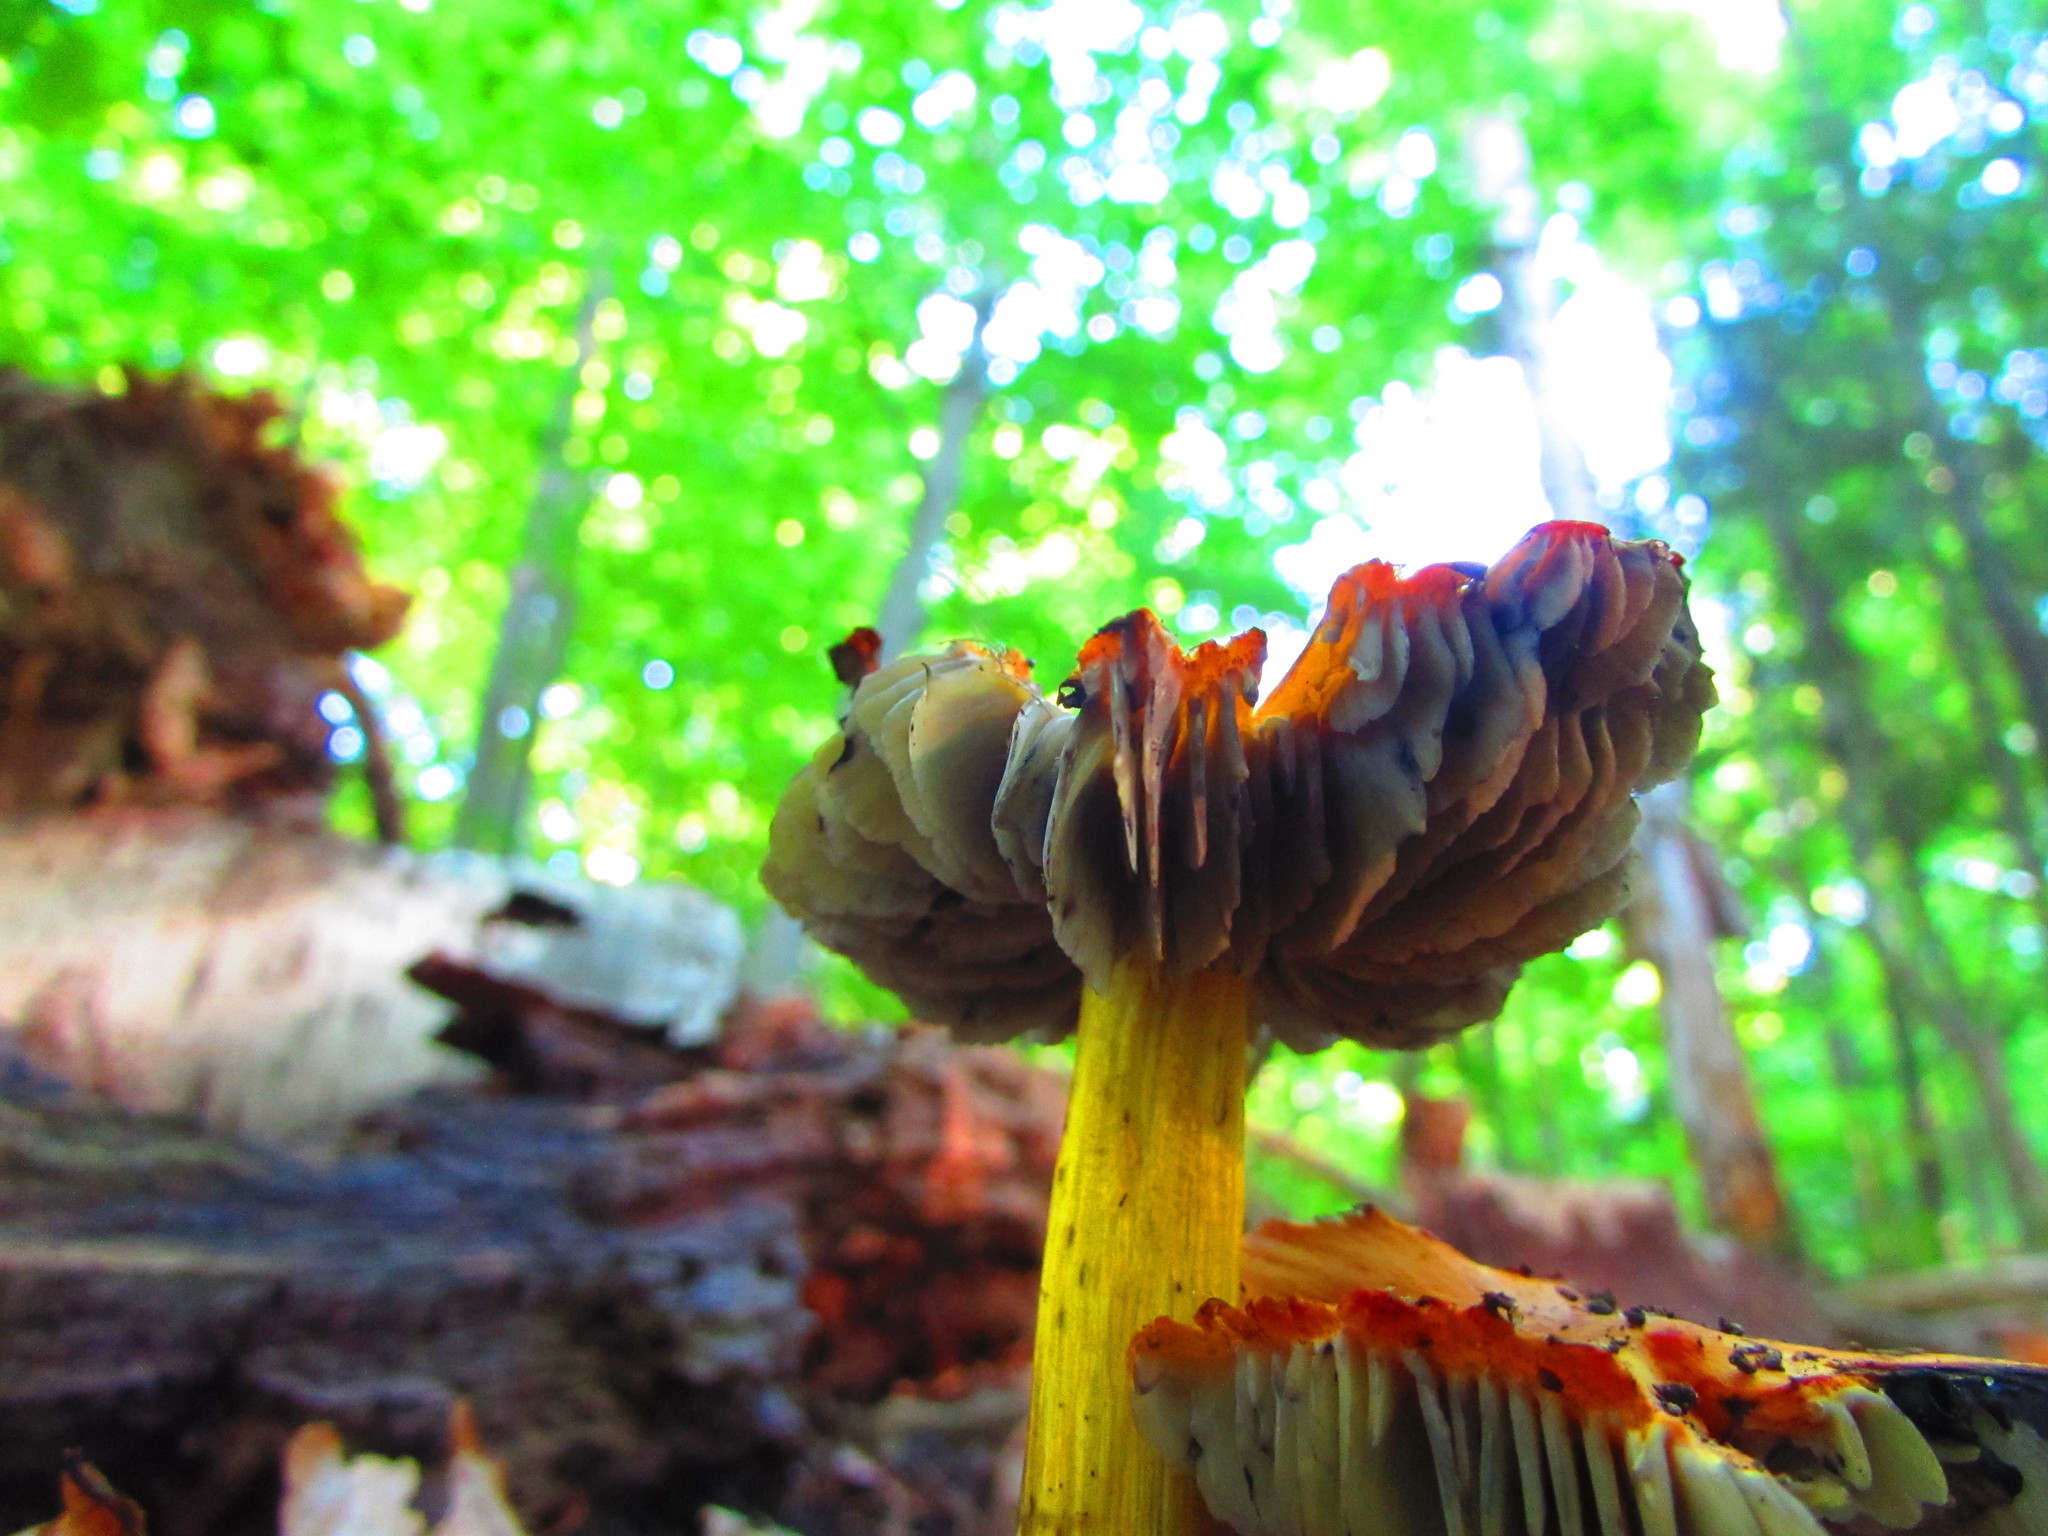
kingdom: Fungi
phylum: Basidiomycota
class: Agaricomycetes
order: Agaricales
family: Hygrophoraceae
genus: Hygrocybe
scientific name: Hygrocybe conica
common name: Blackening wax-cap
